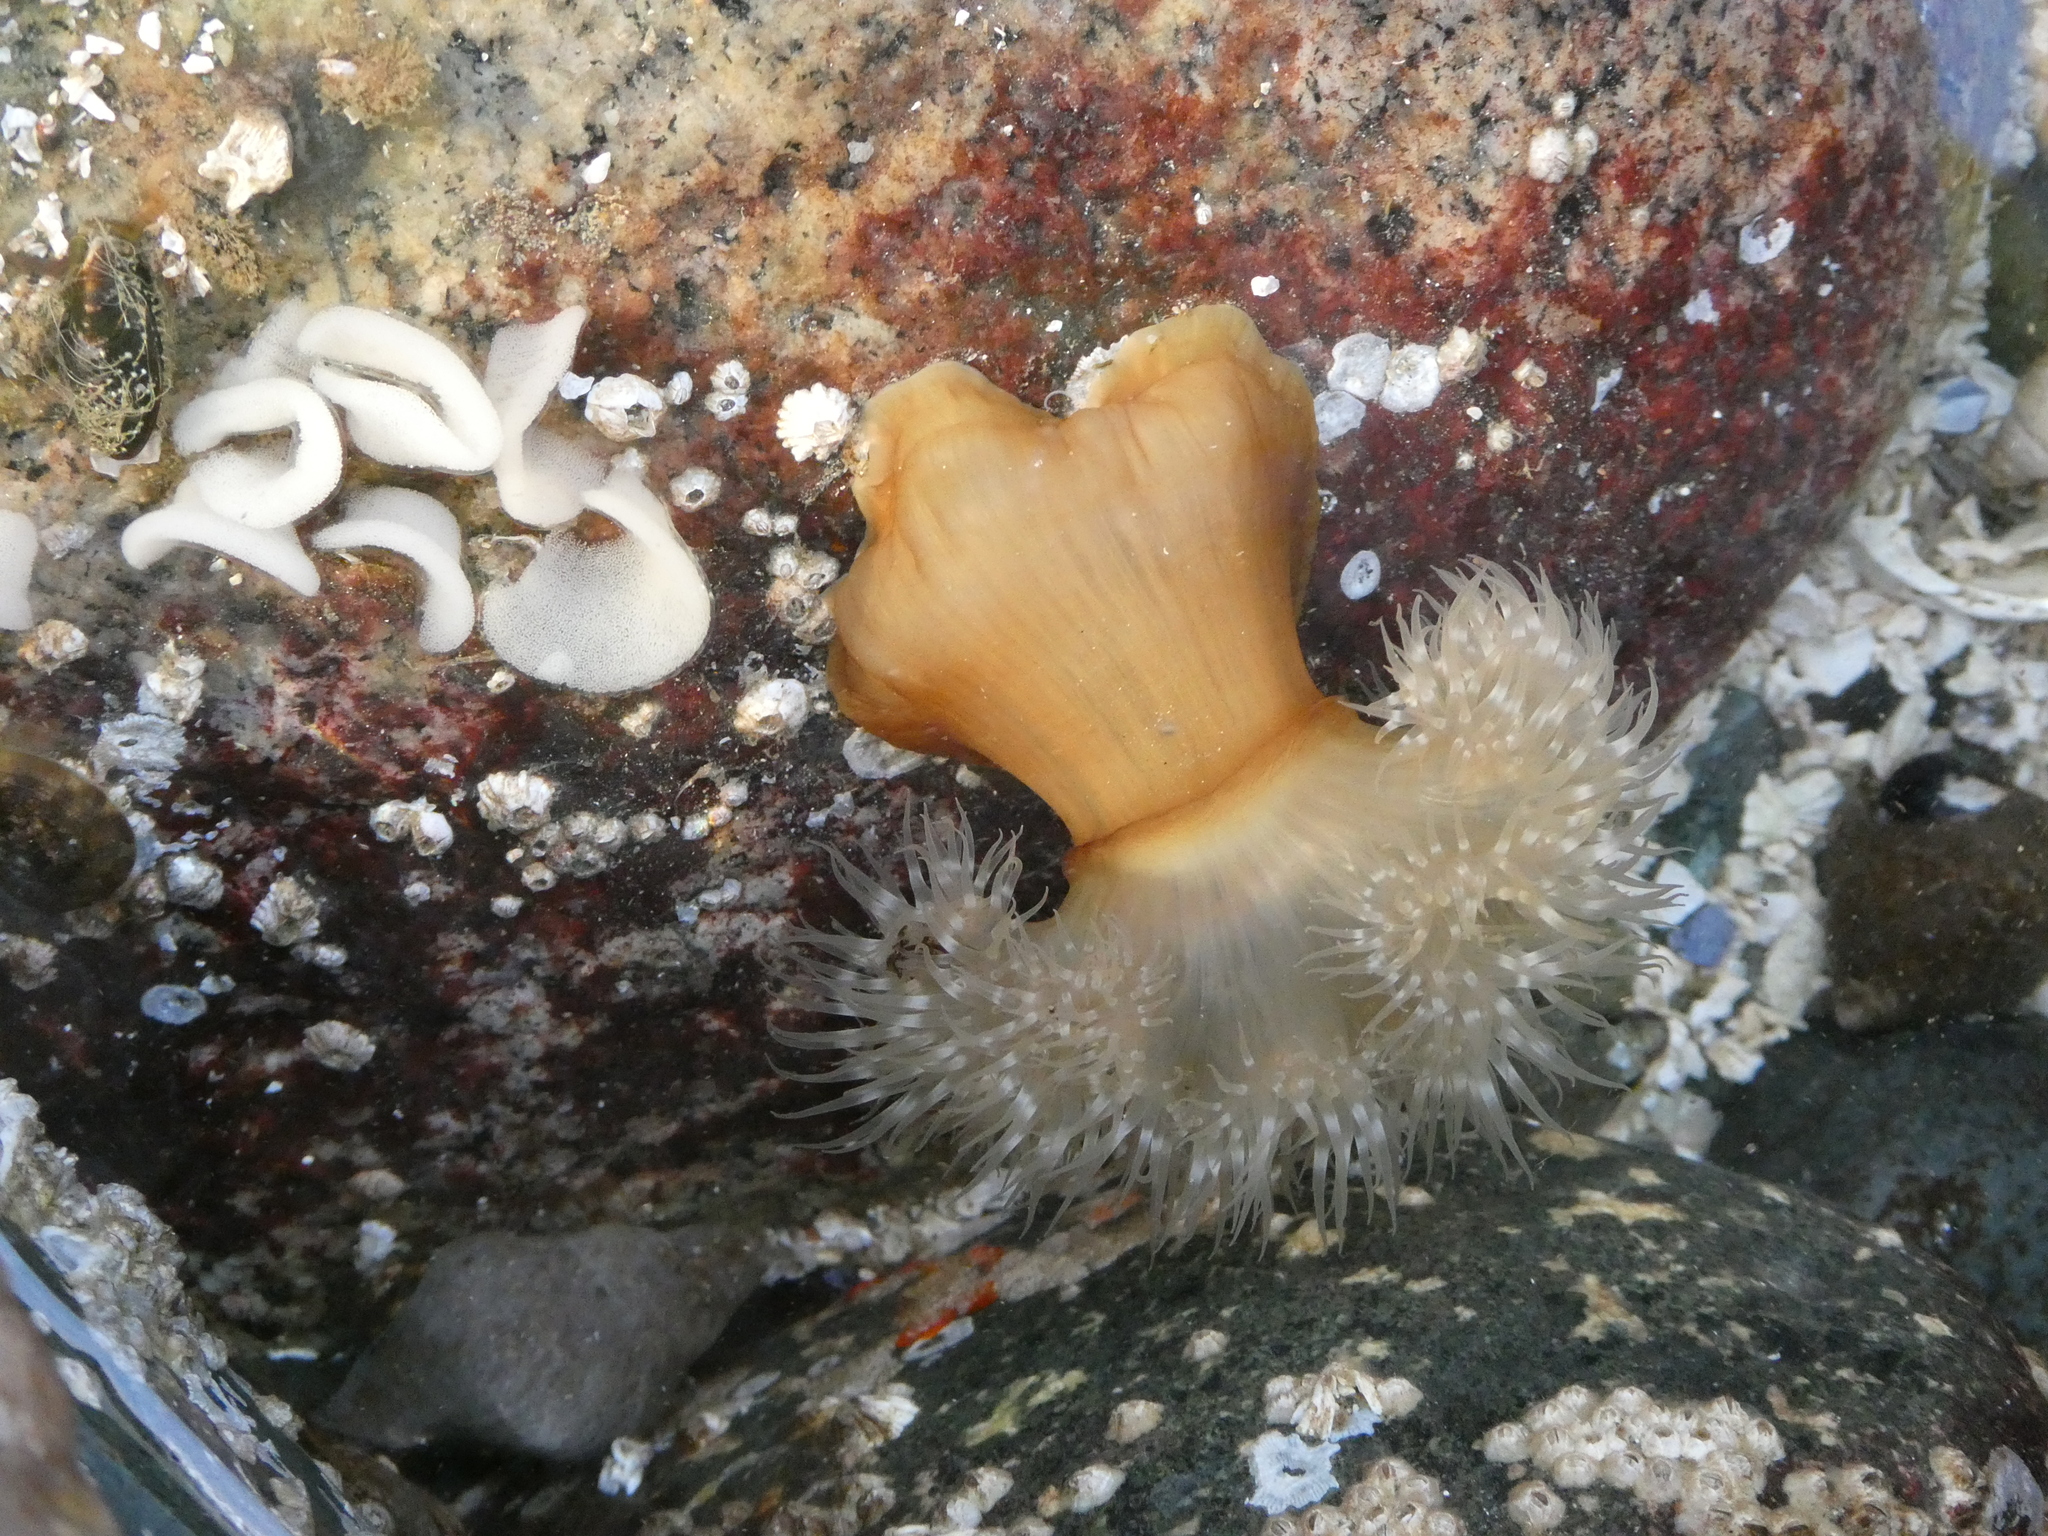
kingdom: Animalia
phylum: Cnidaria
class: Anthozoa
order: Actiniaria
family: Metridiidae
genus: Metridium
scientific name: Metridium senile
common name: Clonal plumose anemone
